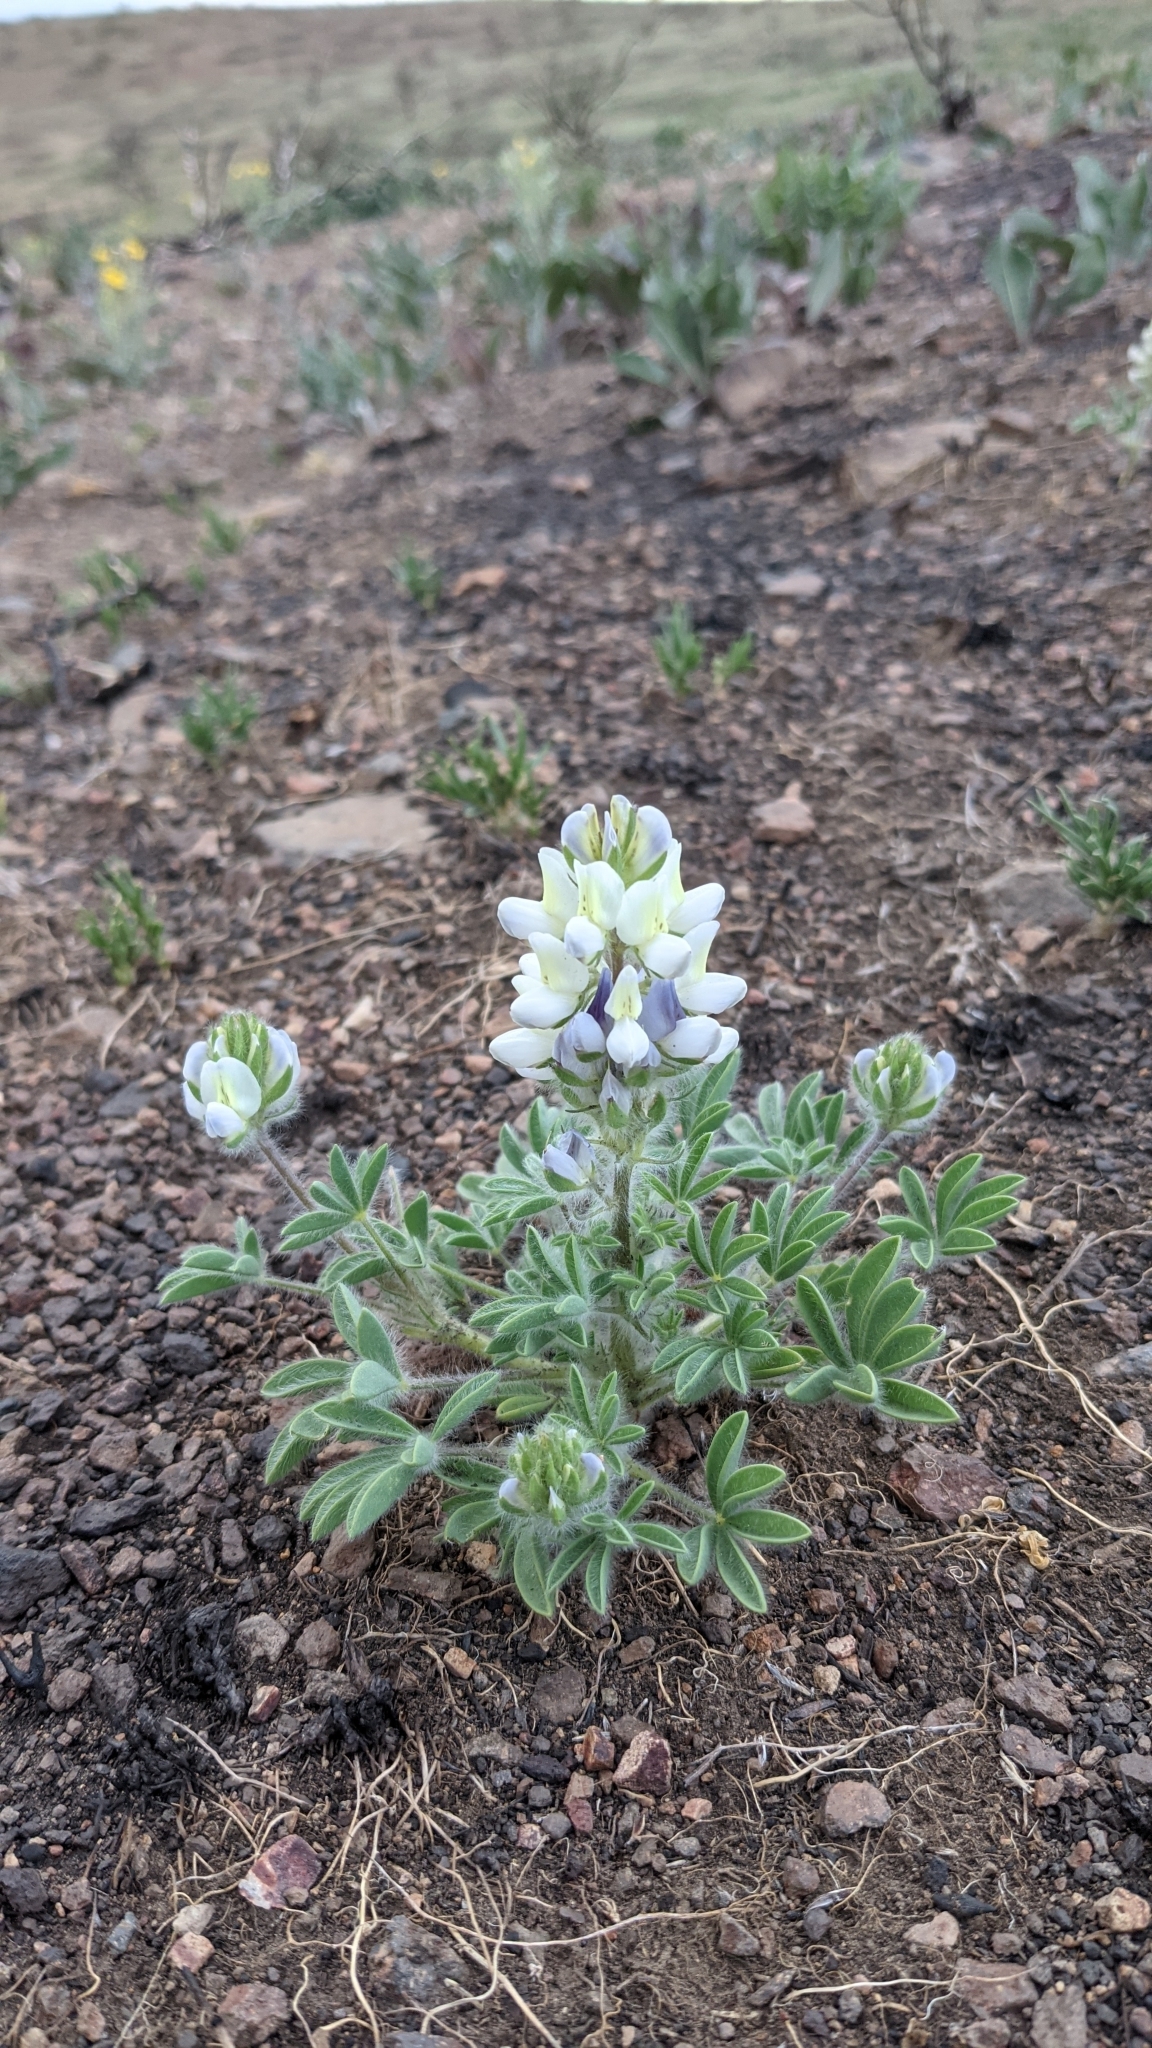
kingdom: Plantae
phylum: Tracheophyta
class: Magnoliopsida
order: Fabales
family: Fabaceae
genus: Lupinus
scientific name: Lupinus malacophyllus
